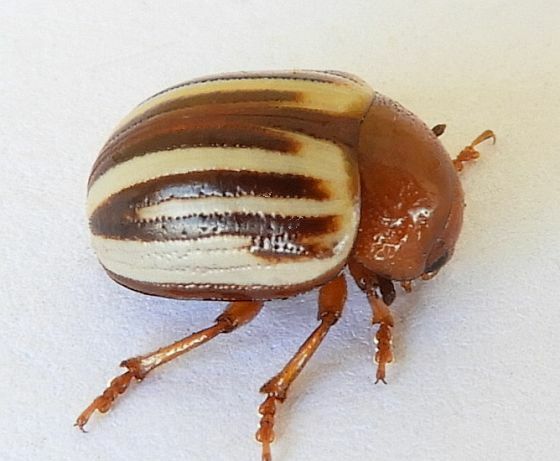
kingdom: Animalia
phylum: Arthropoda
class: Insecta
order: Coleoptera
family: Chrysomelidae
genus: Leptinotarsa
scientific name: Leptinotarsa peninsularis
